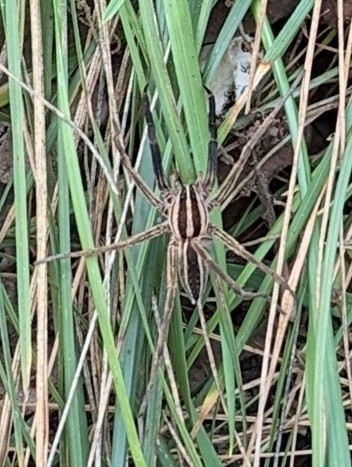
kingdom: Animalia
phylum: Arthropoda
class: Arachnida
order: Araneae
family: Lycosidae
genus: Rabidosa
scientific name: Rabidosa rabida
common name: Rabid wolf spider
